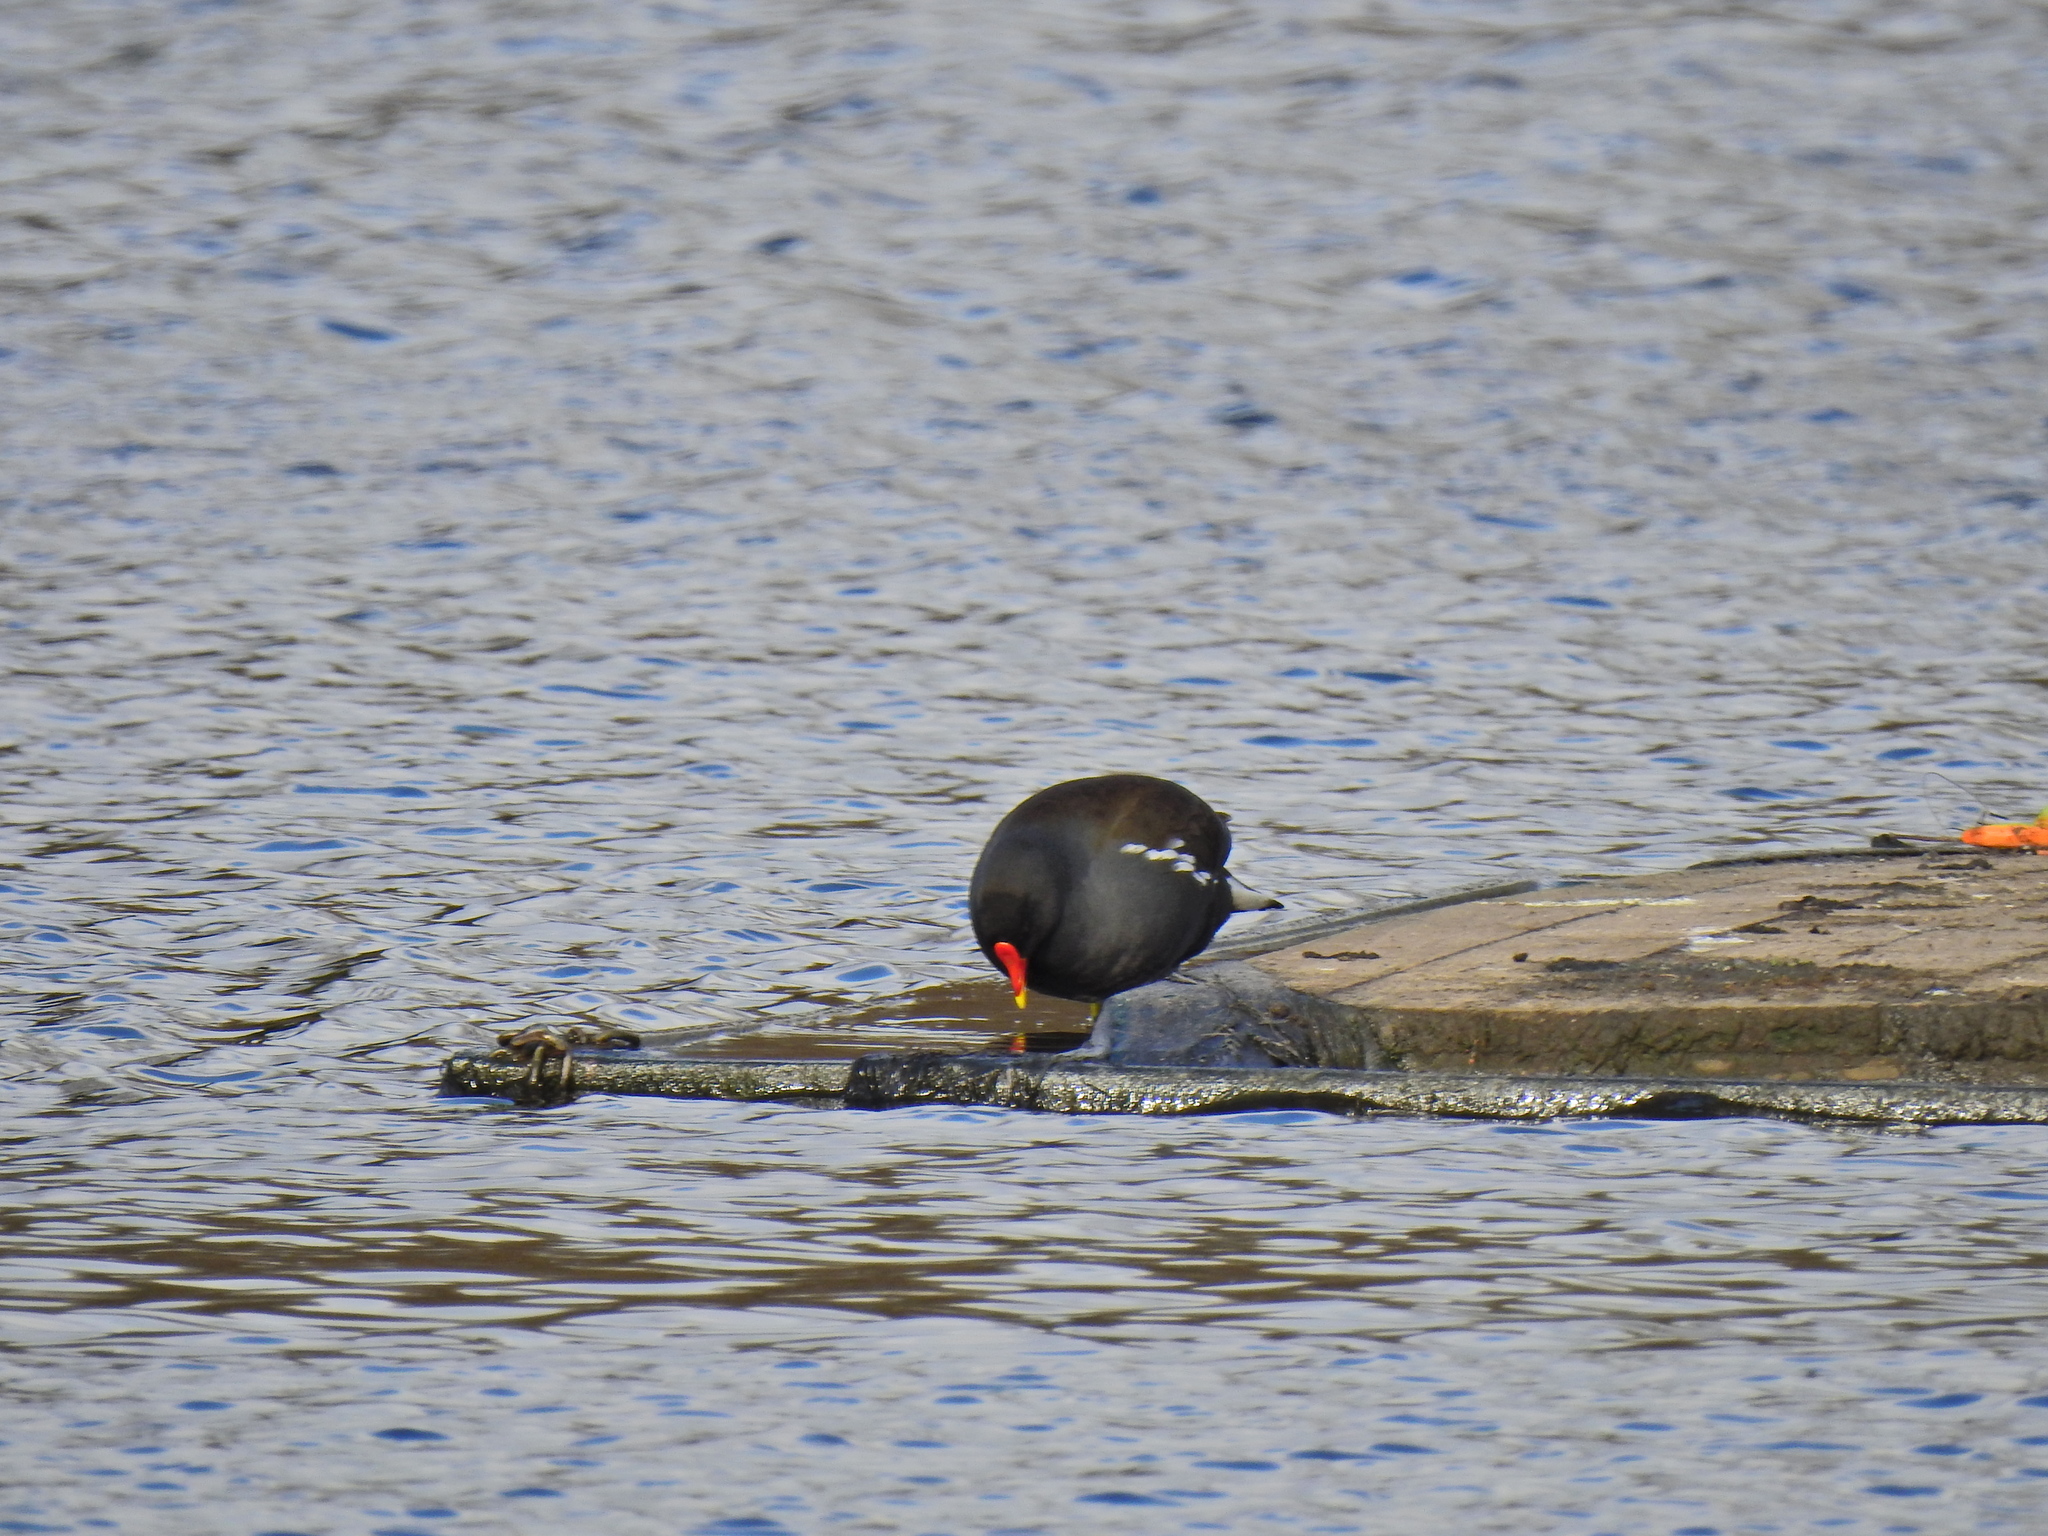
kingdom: Animalia
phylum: Chordata
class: Aves
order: Gruiformes
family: Rallidae
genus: Gallinula
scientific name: Gallinula chloropus
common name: Common moorhen
